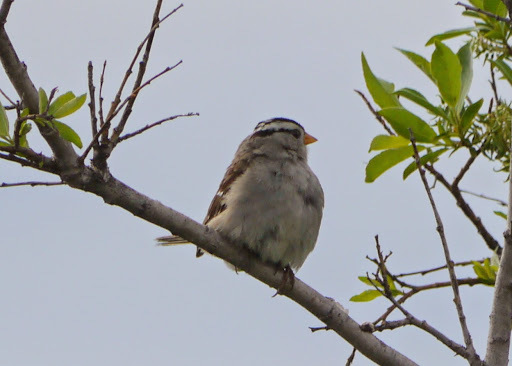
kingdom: Animalia
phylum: Chordata
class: Aves
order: Passeriformes
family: Passerellidae
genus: Zonotrichia
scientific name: Zonotrichia leucophrys
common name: White-crowned sparrow
